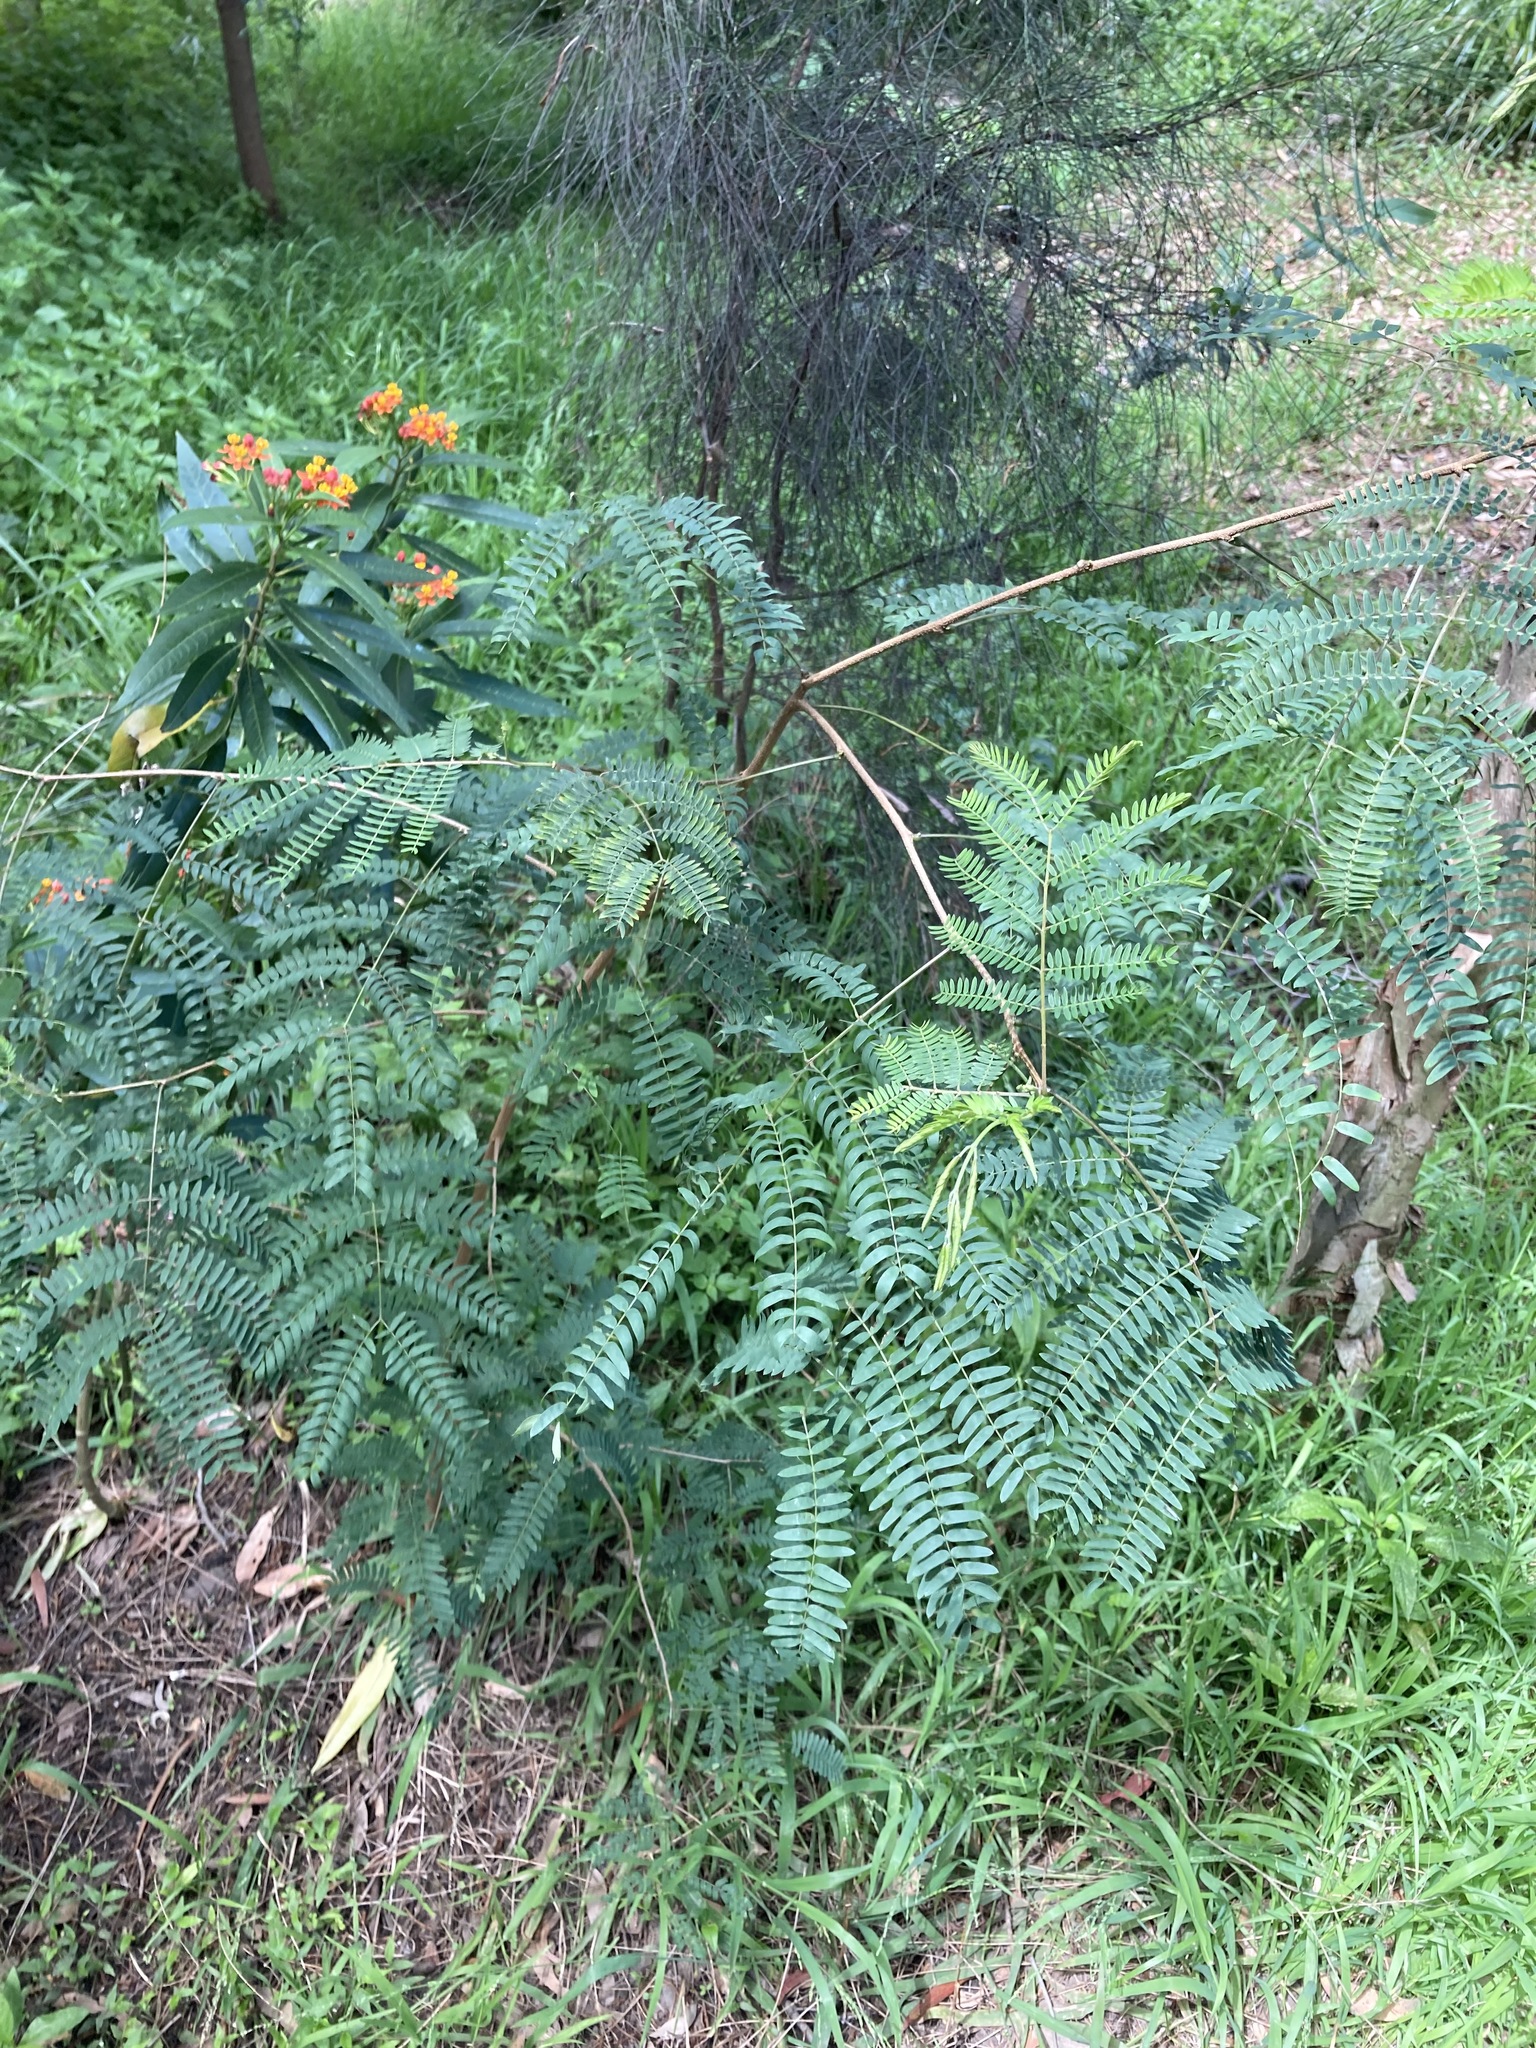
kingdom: Plantae
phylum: Tracheophyta
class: Magnoliopsida
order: Fabales
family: Fabaceae
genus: Leucaena
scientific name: Leucaena leucocephala
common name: White leadtree
